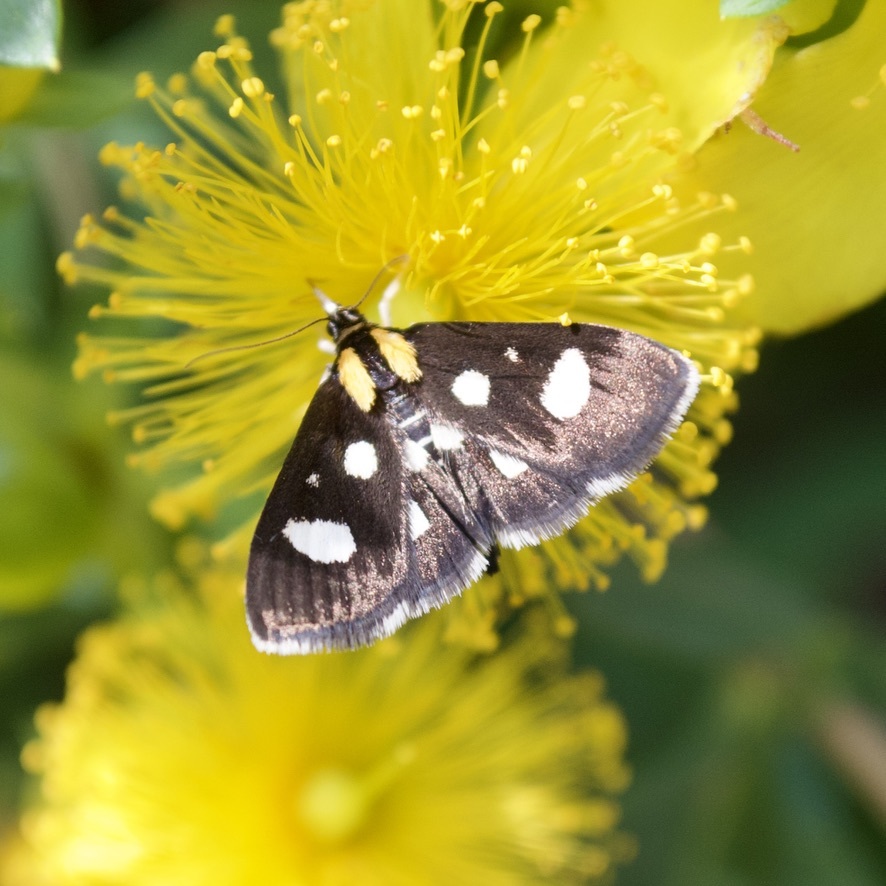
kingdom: Animalia
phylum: Arthropoda
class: Insecta
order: Lepidoptera
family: Crambidae
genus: Anania
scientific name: Anania funebris
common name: White-spotted sable moth
